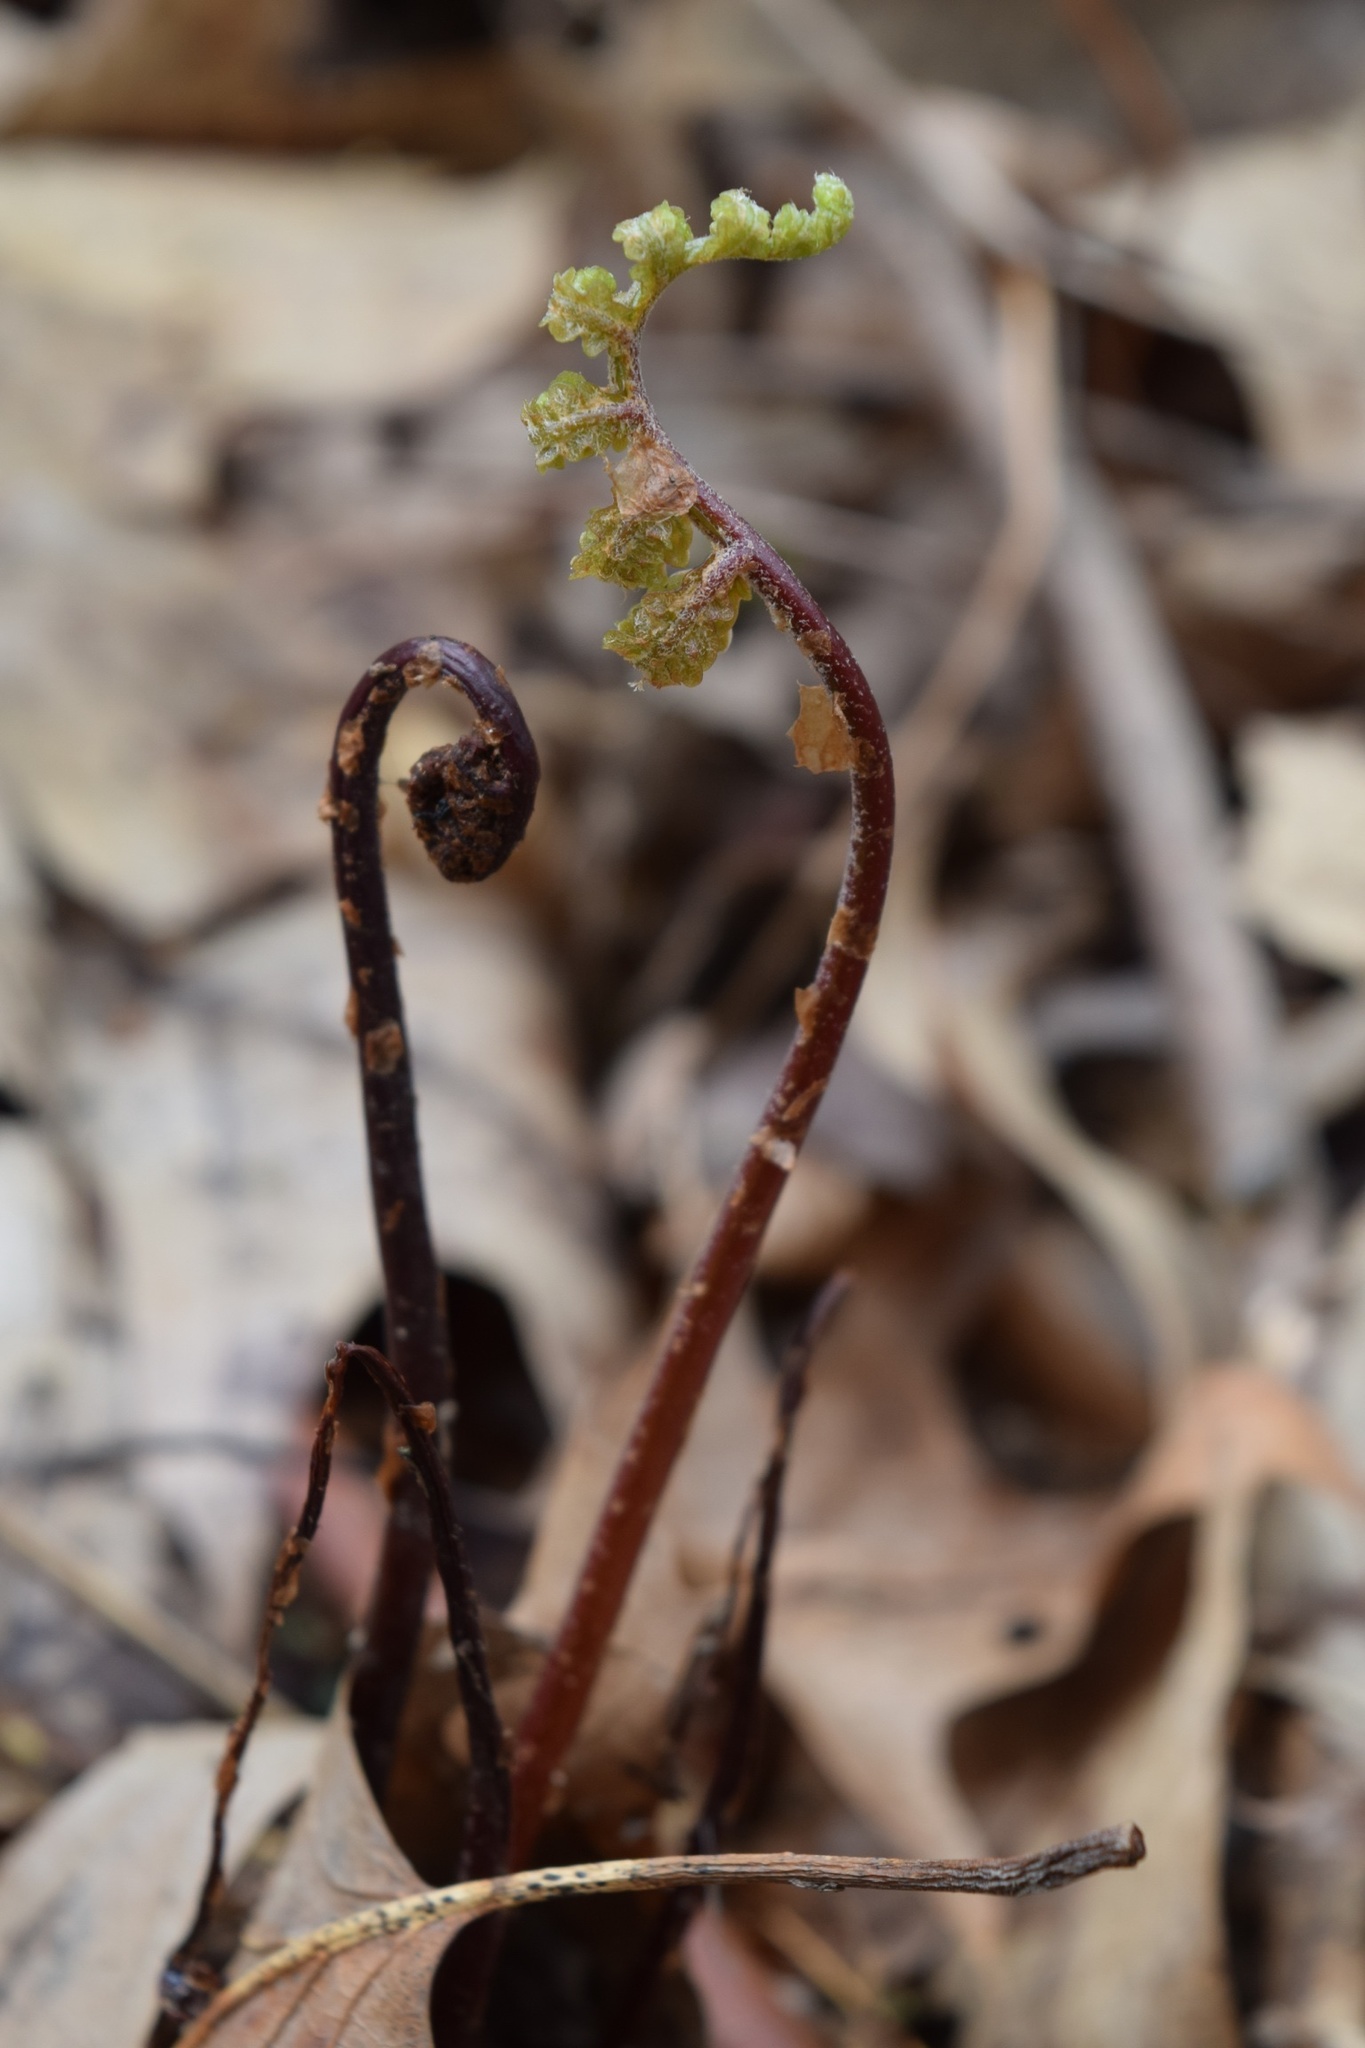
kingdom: Plantae
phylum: Tracheophyta
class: Polypodiopsida
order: Polypodiales
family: Onocleaceae
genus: Onoclea
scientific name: Onoclea sensibilis
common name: Sensitive fern
